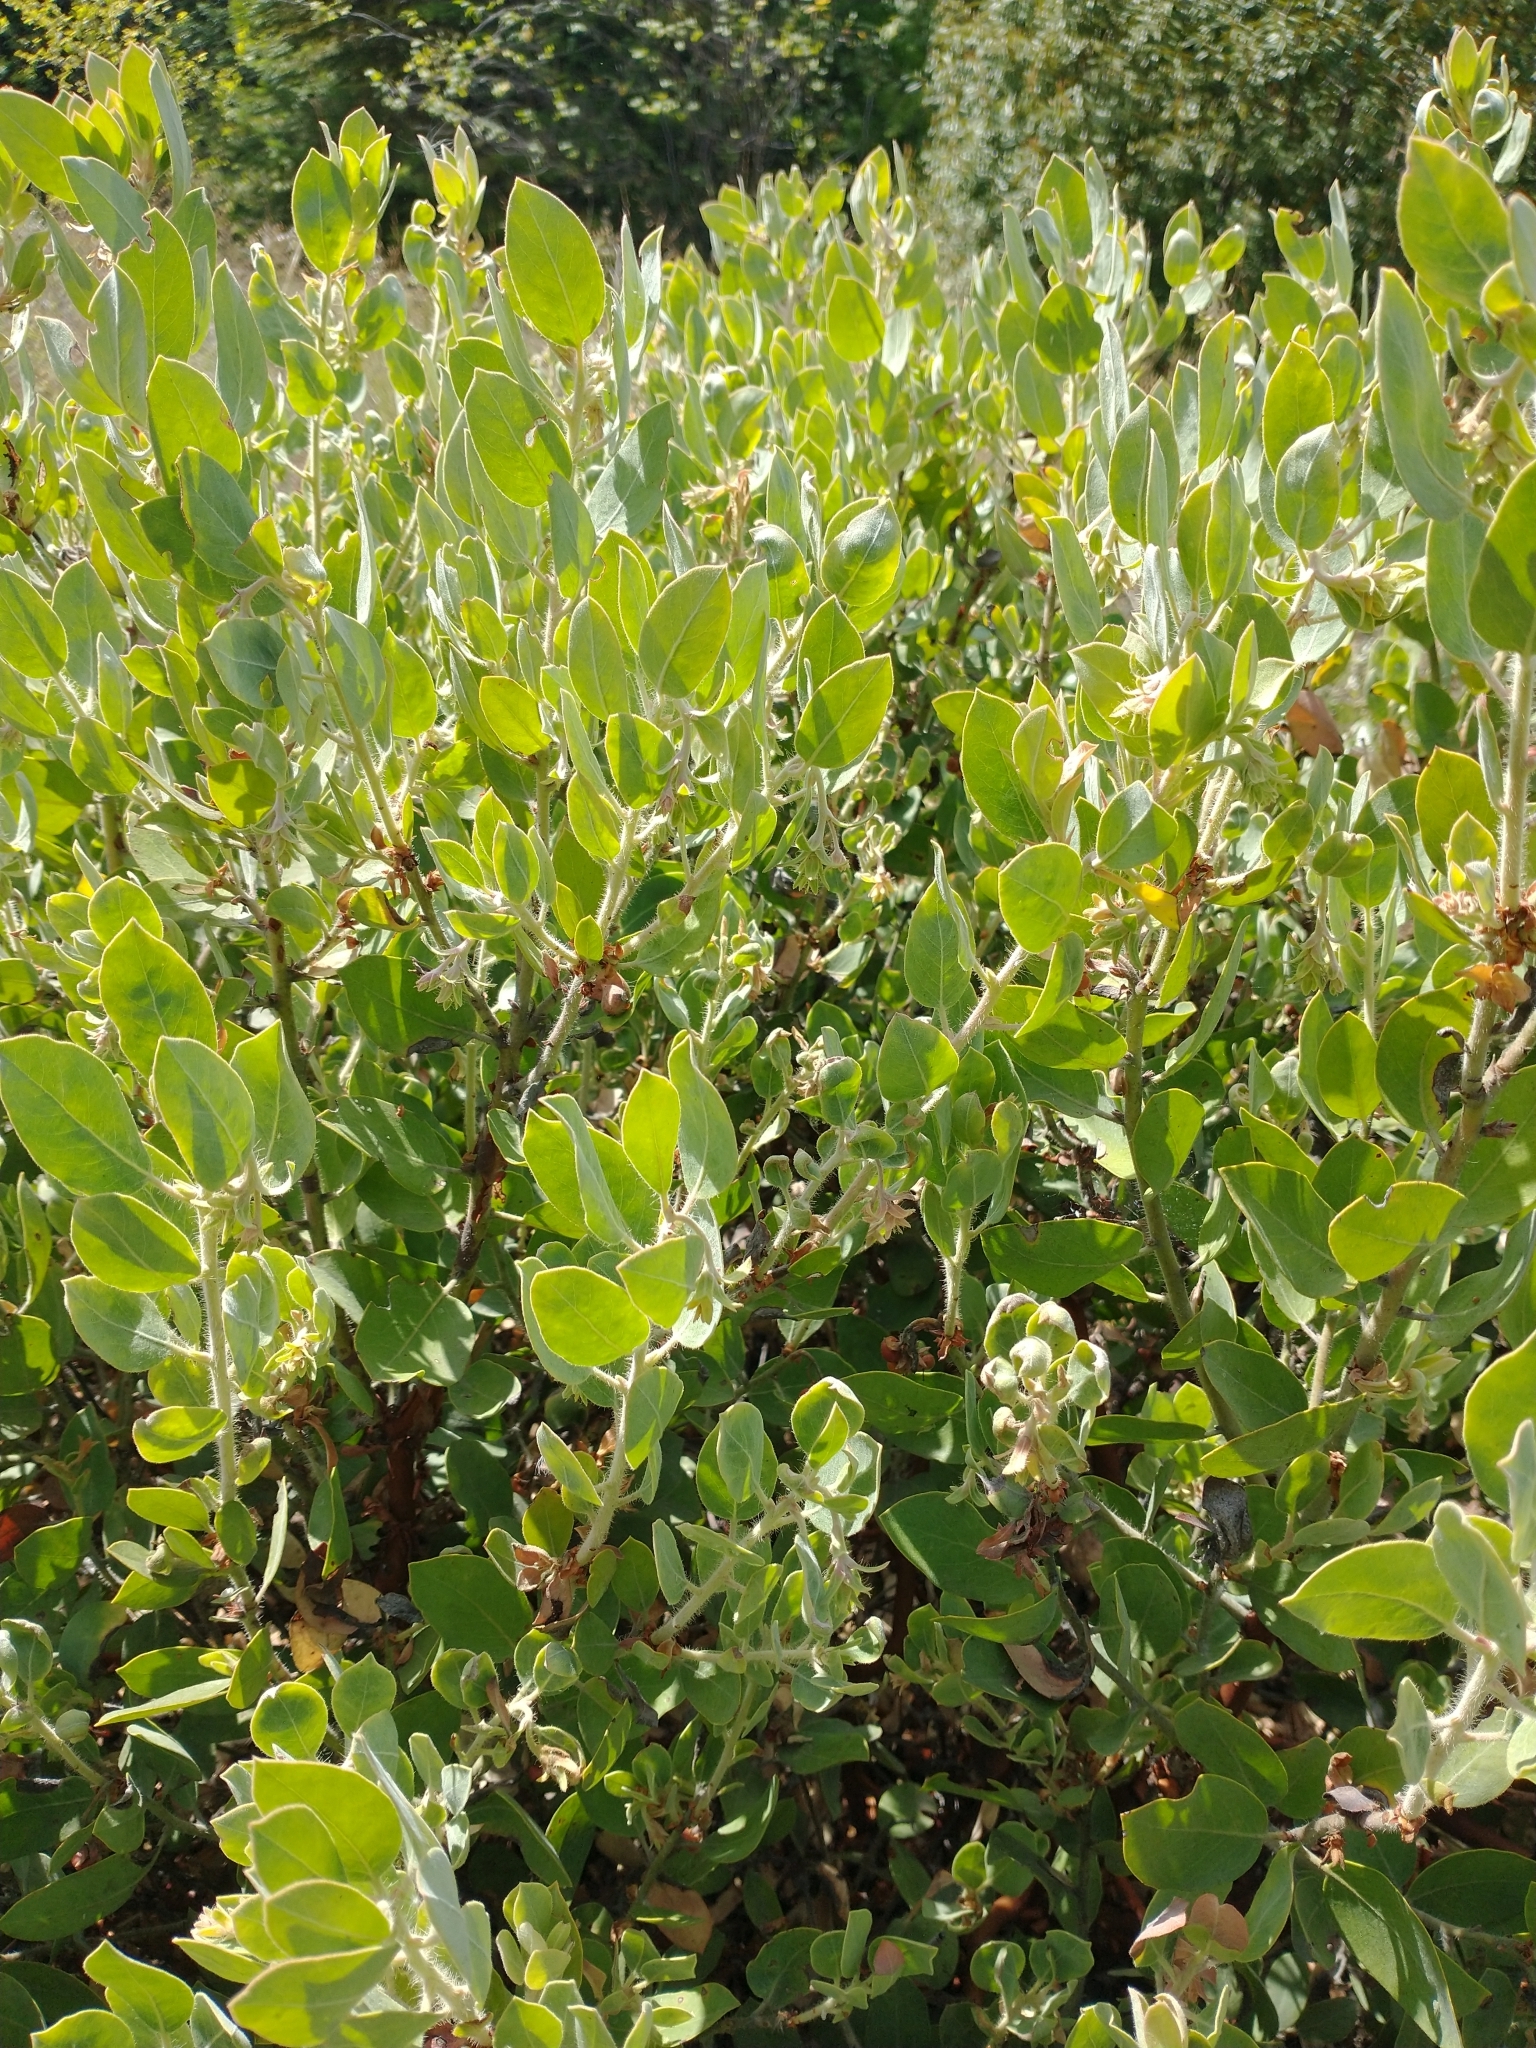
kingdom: Plantae
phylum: Tracheophyta
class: Magnoliopsida
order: Ericales
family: Ericaceae
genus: Arctostaphylos
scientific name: Arctostaphylos columbiana
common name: Bristly bearberry
